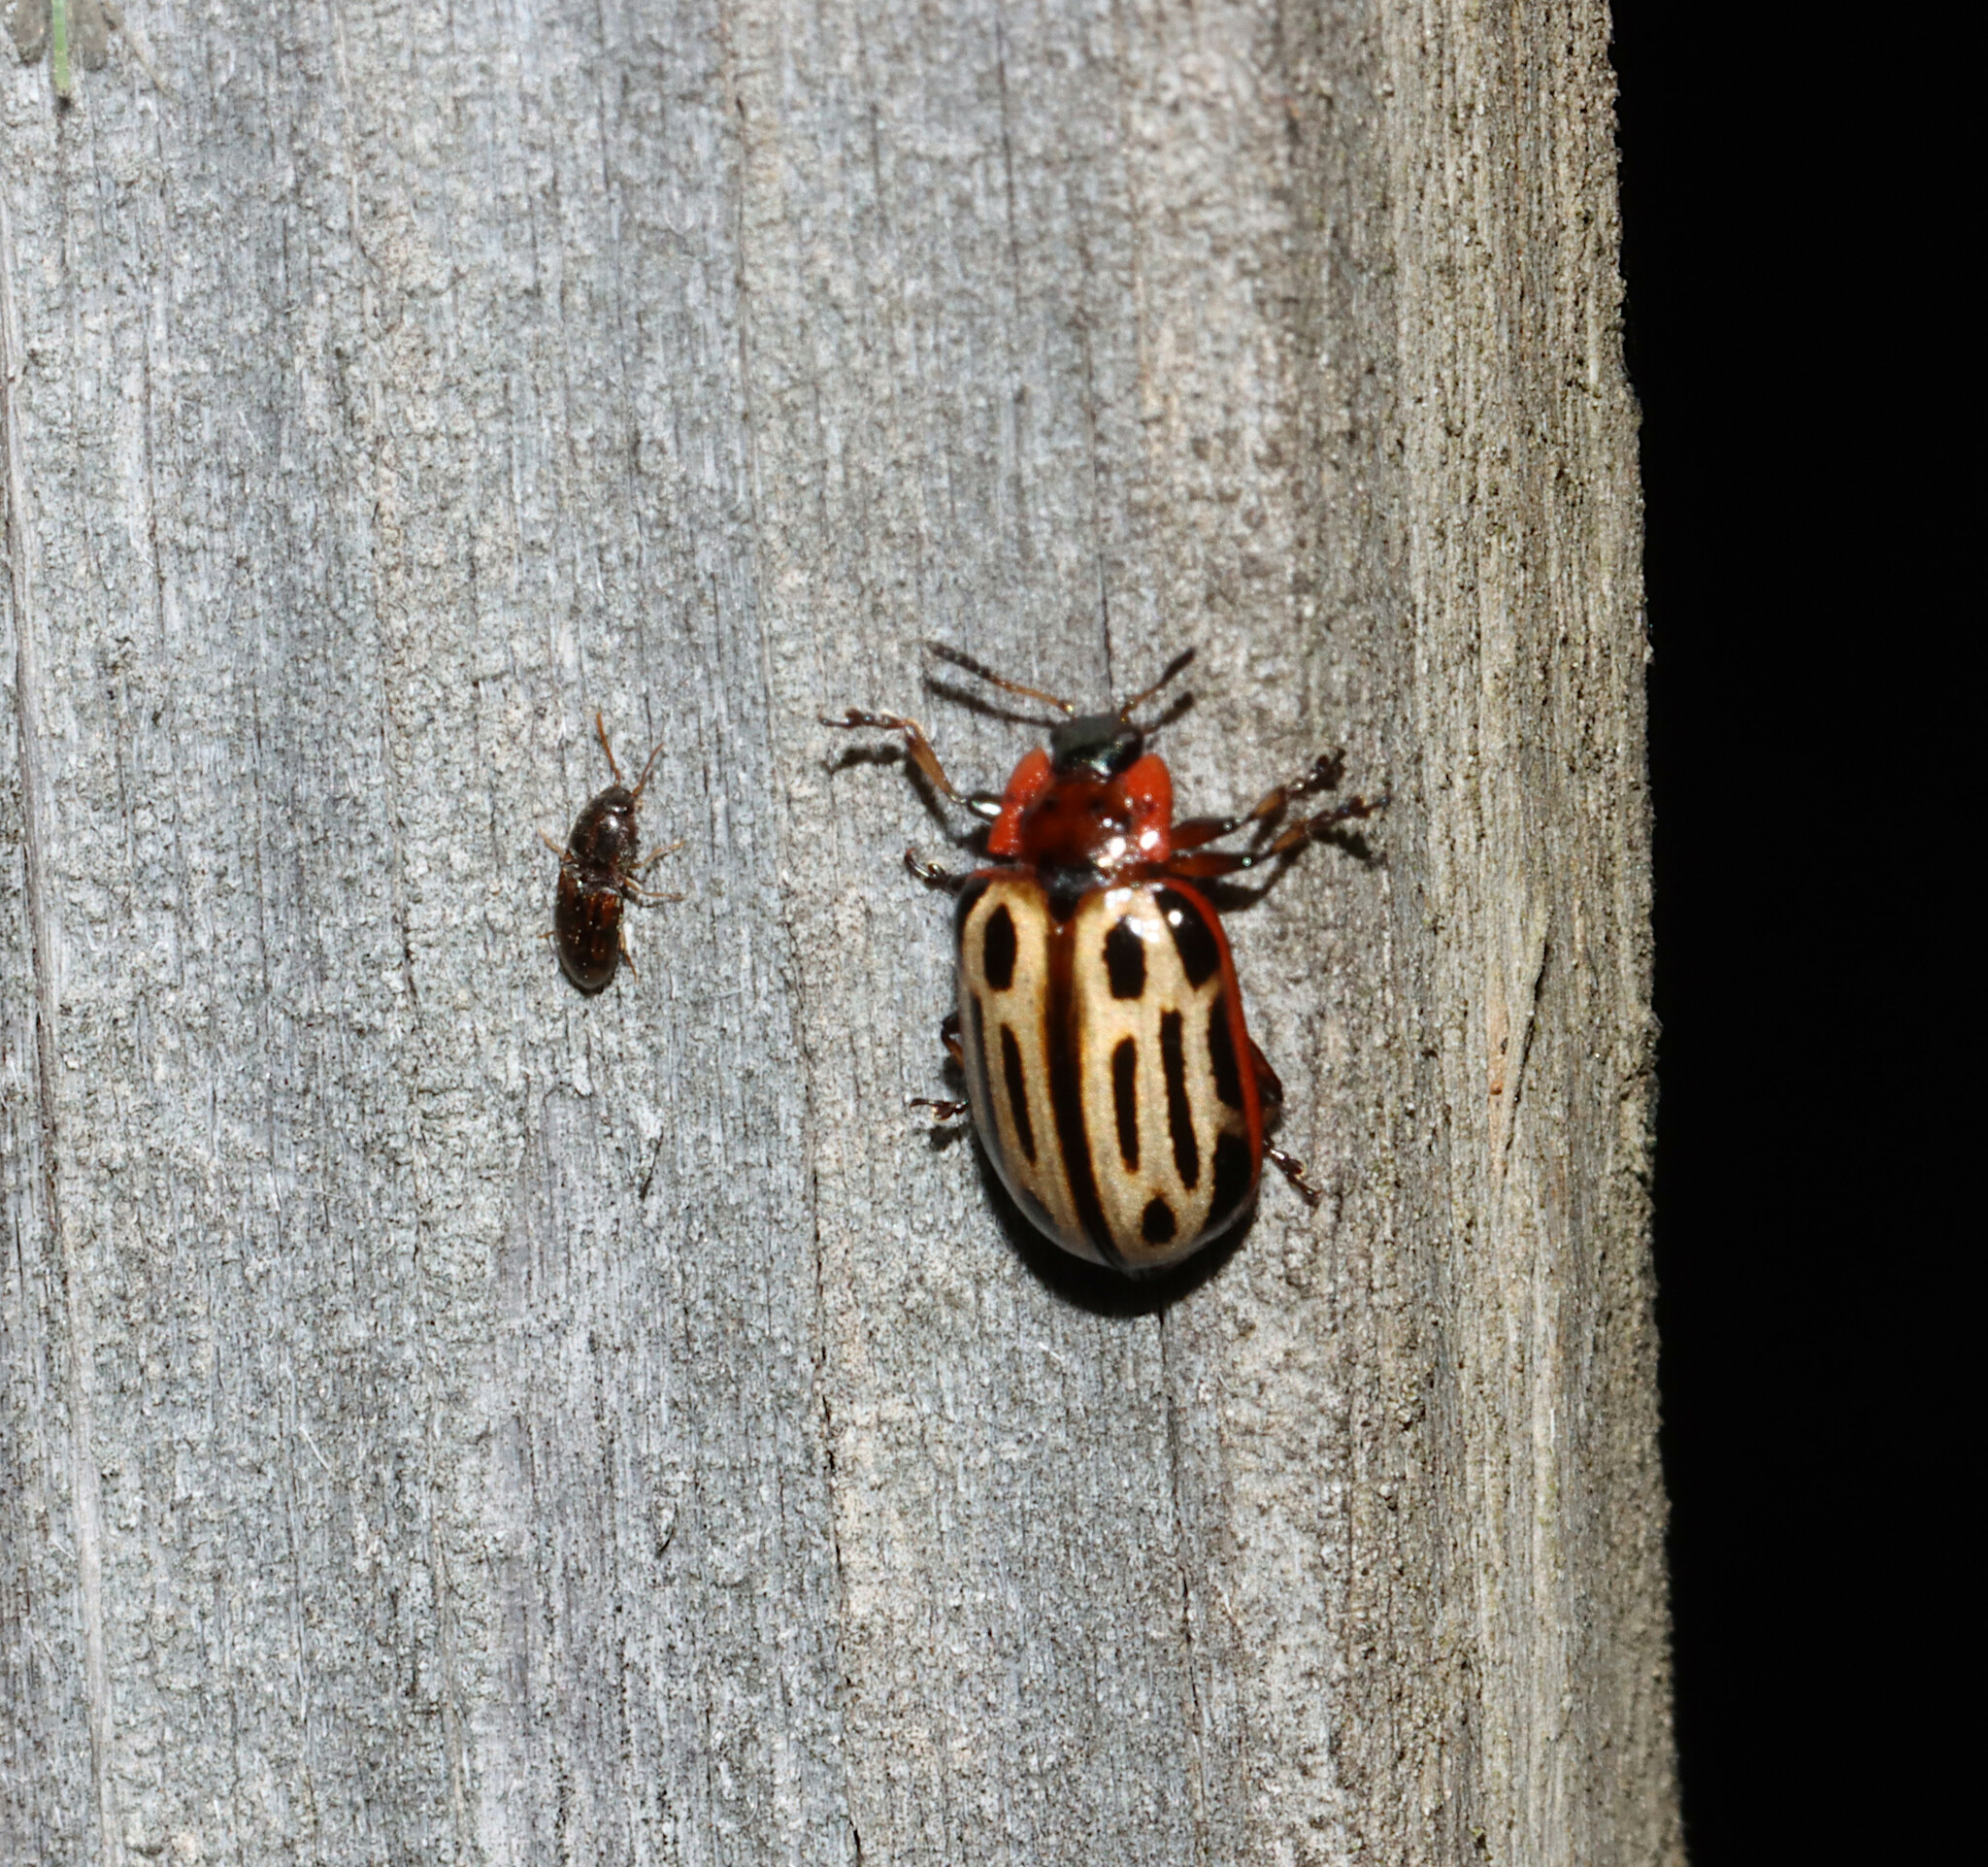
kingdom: Animalia
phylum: Arthropoda
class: Insecta
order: Coleoptera
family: Chrysomelidae
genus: Aethiopocassis
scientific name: Aethiopocassis scripta
